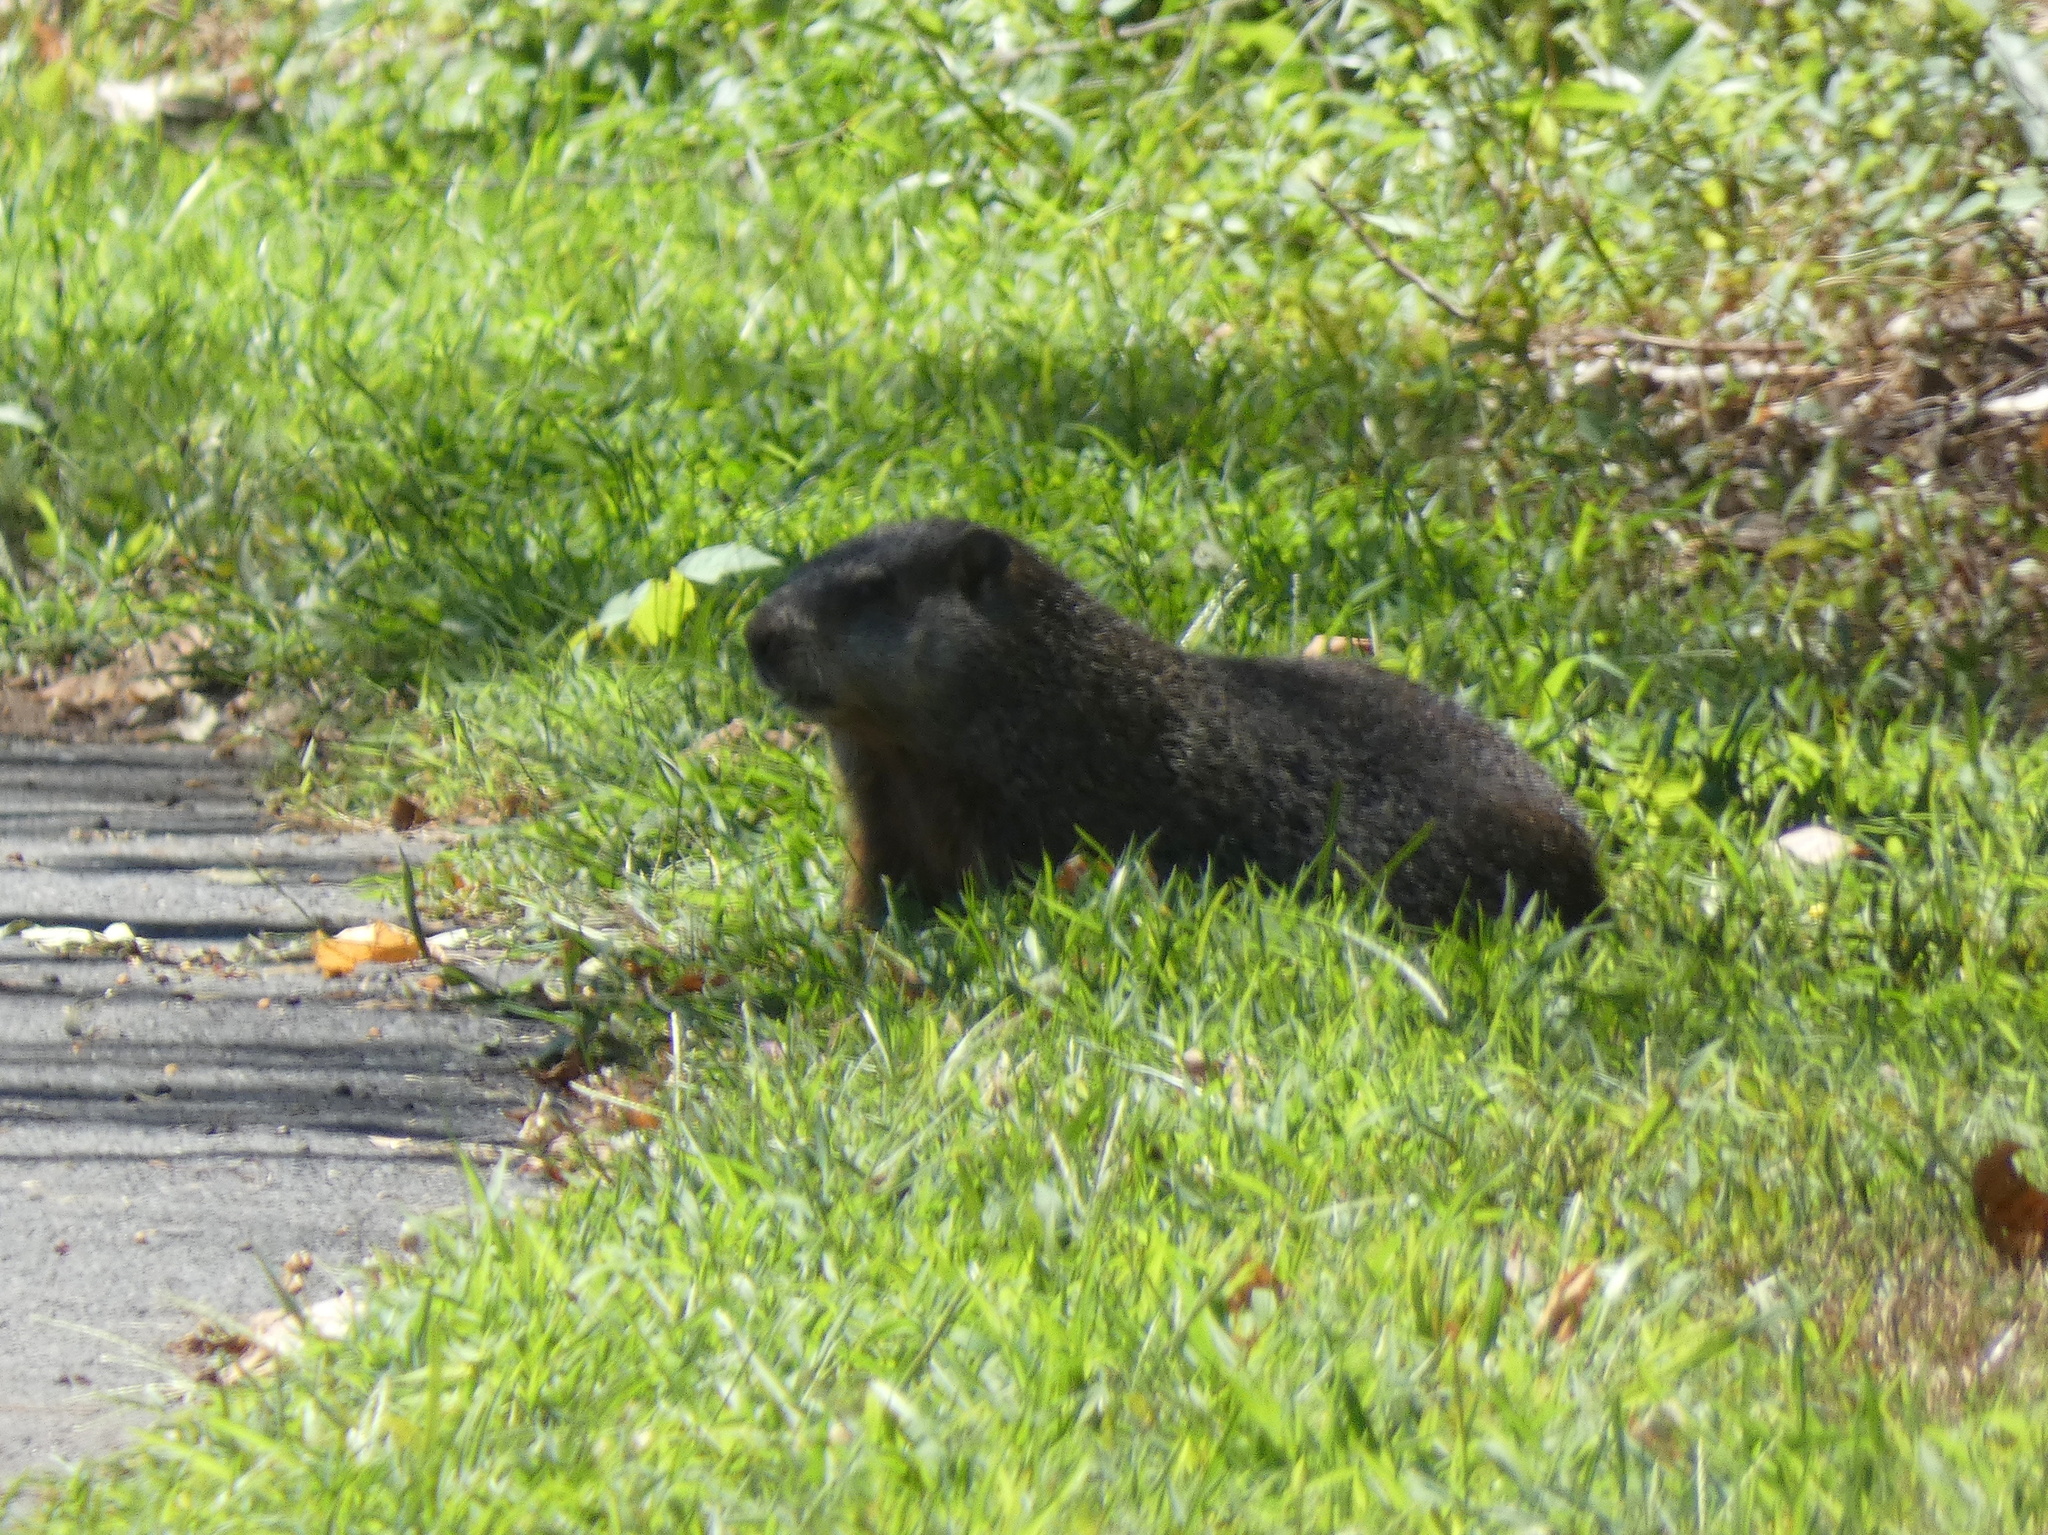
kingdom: Animalia
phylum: Chordata
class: Mammalia
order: Rodentia
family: Sciuridae
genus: Marmota
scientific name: Marmota monax
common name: Groundhog
